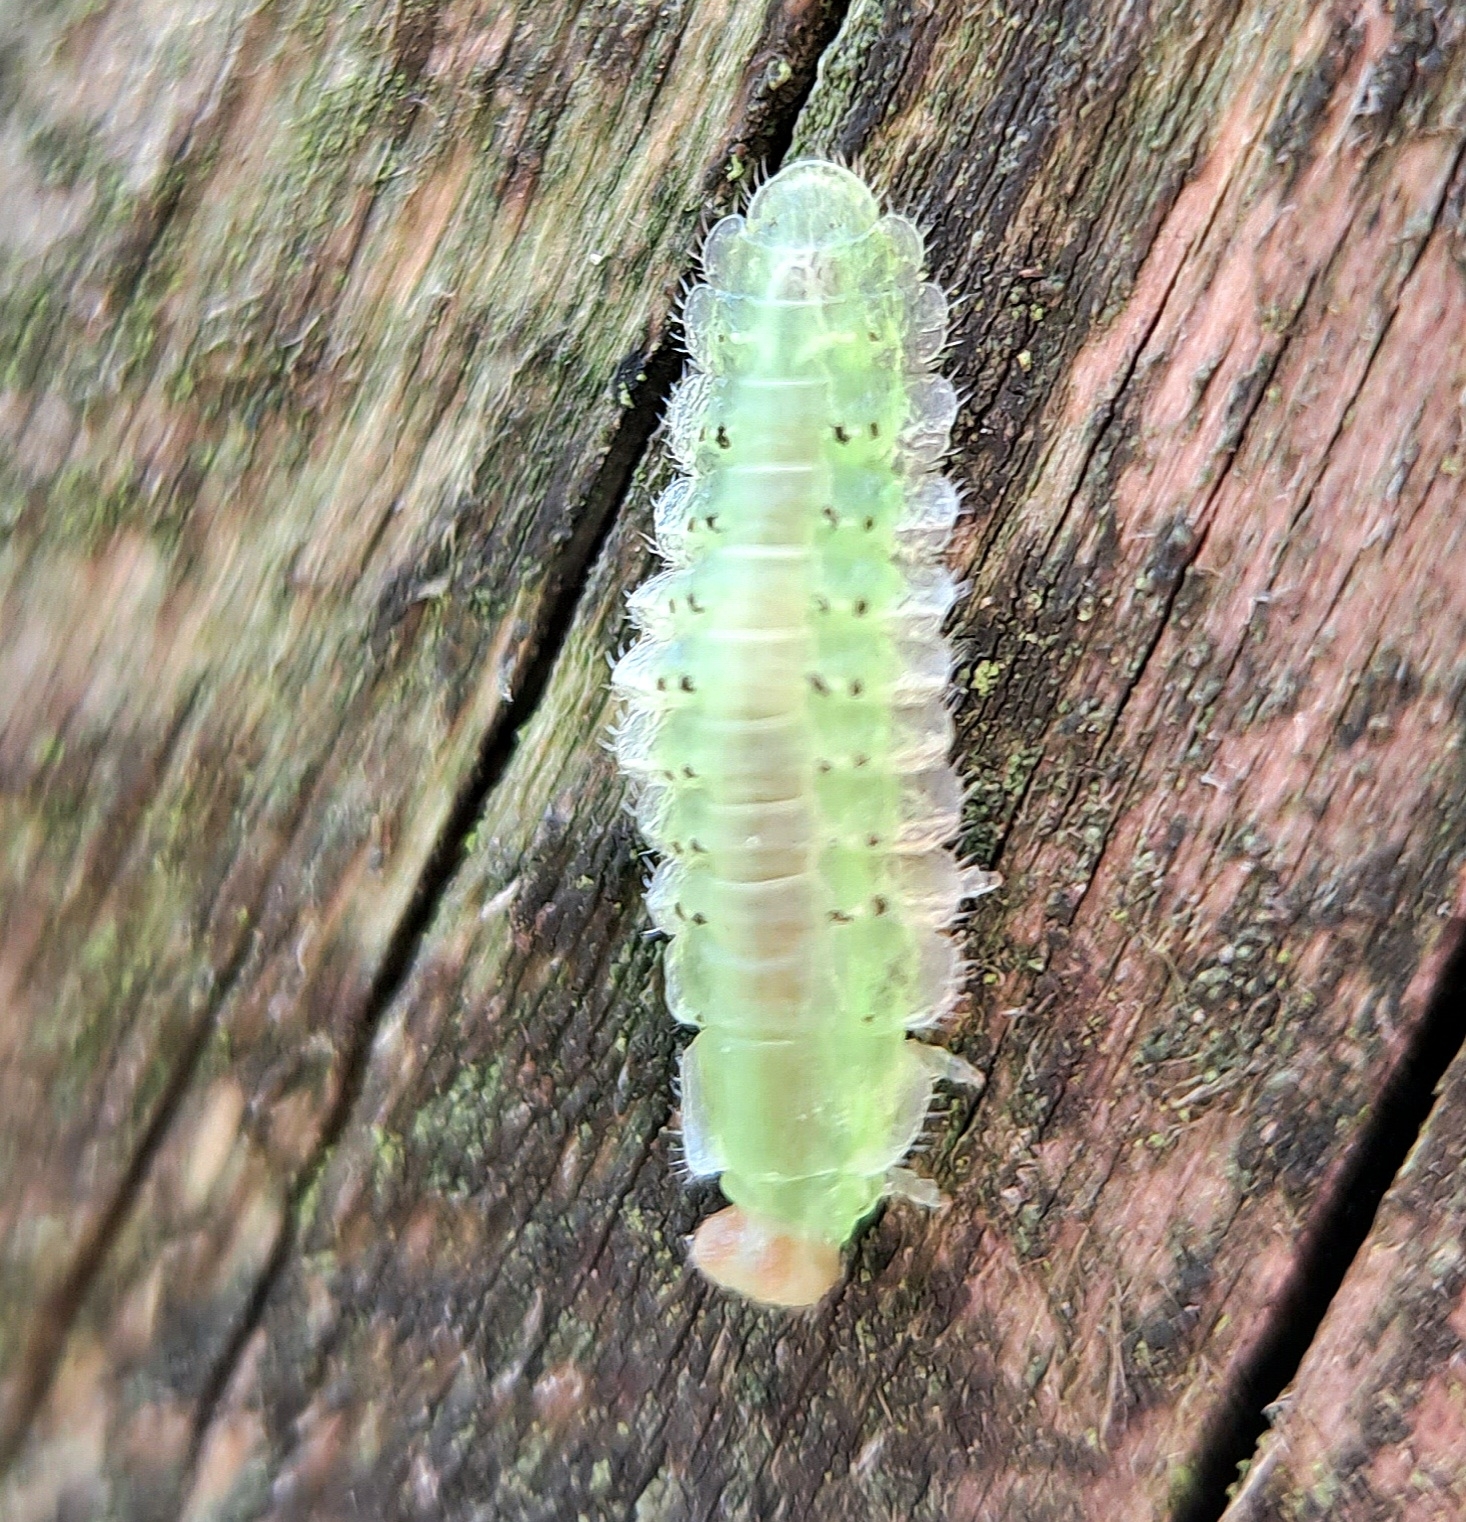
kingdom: Animalia
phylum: Arthropoda
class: Insecta
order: Hymenoptera
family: Tenthredinidae
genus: Platycampus
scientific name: Platycampus luridiventris
